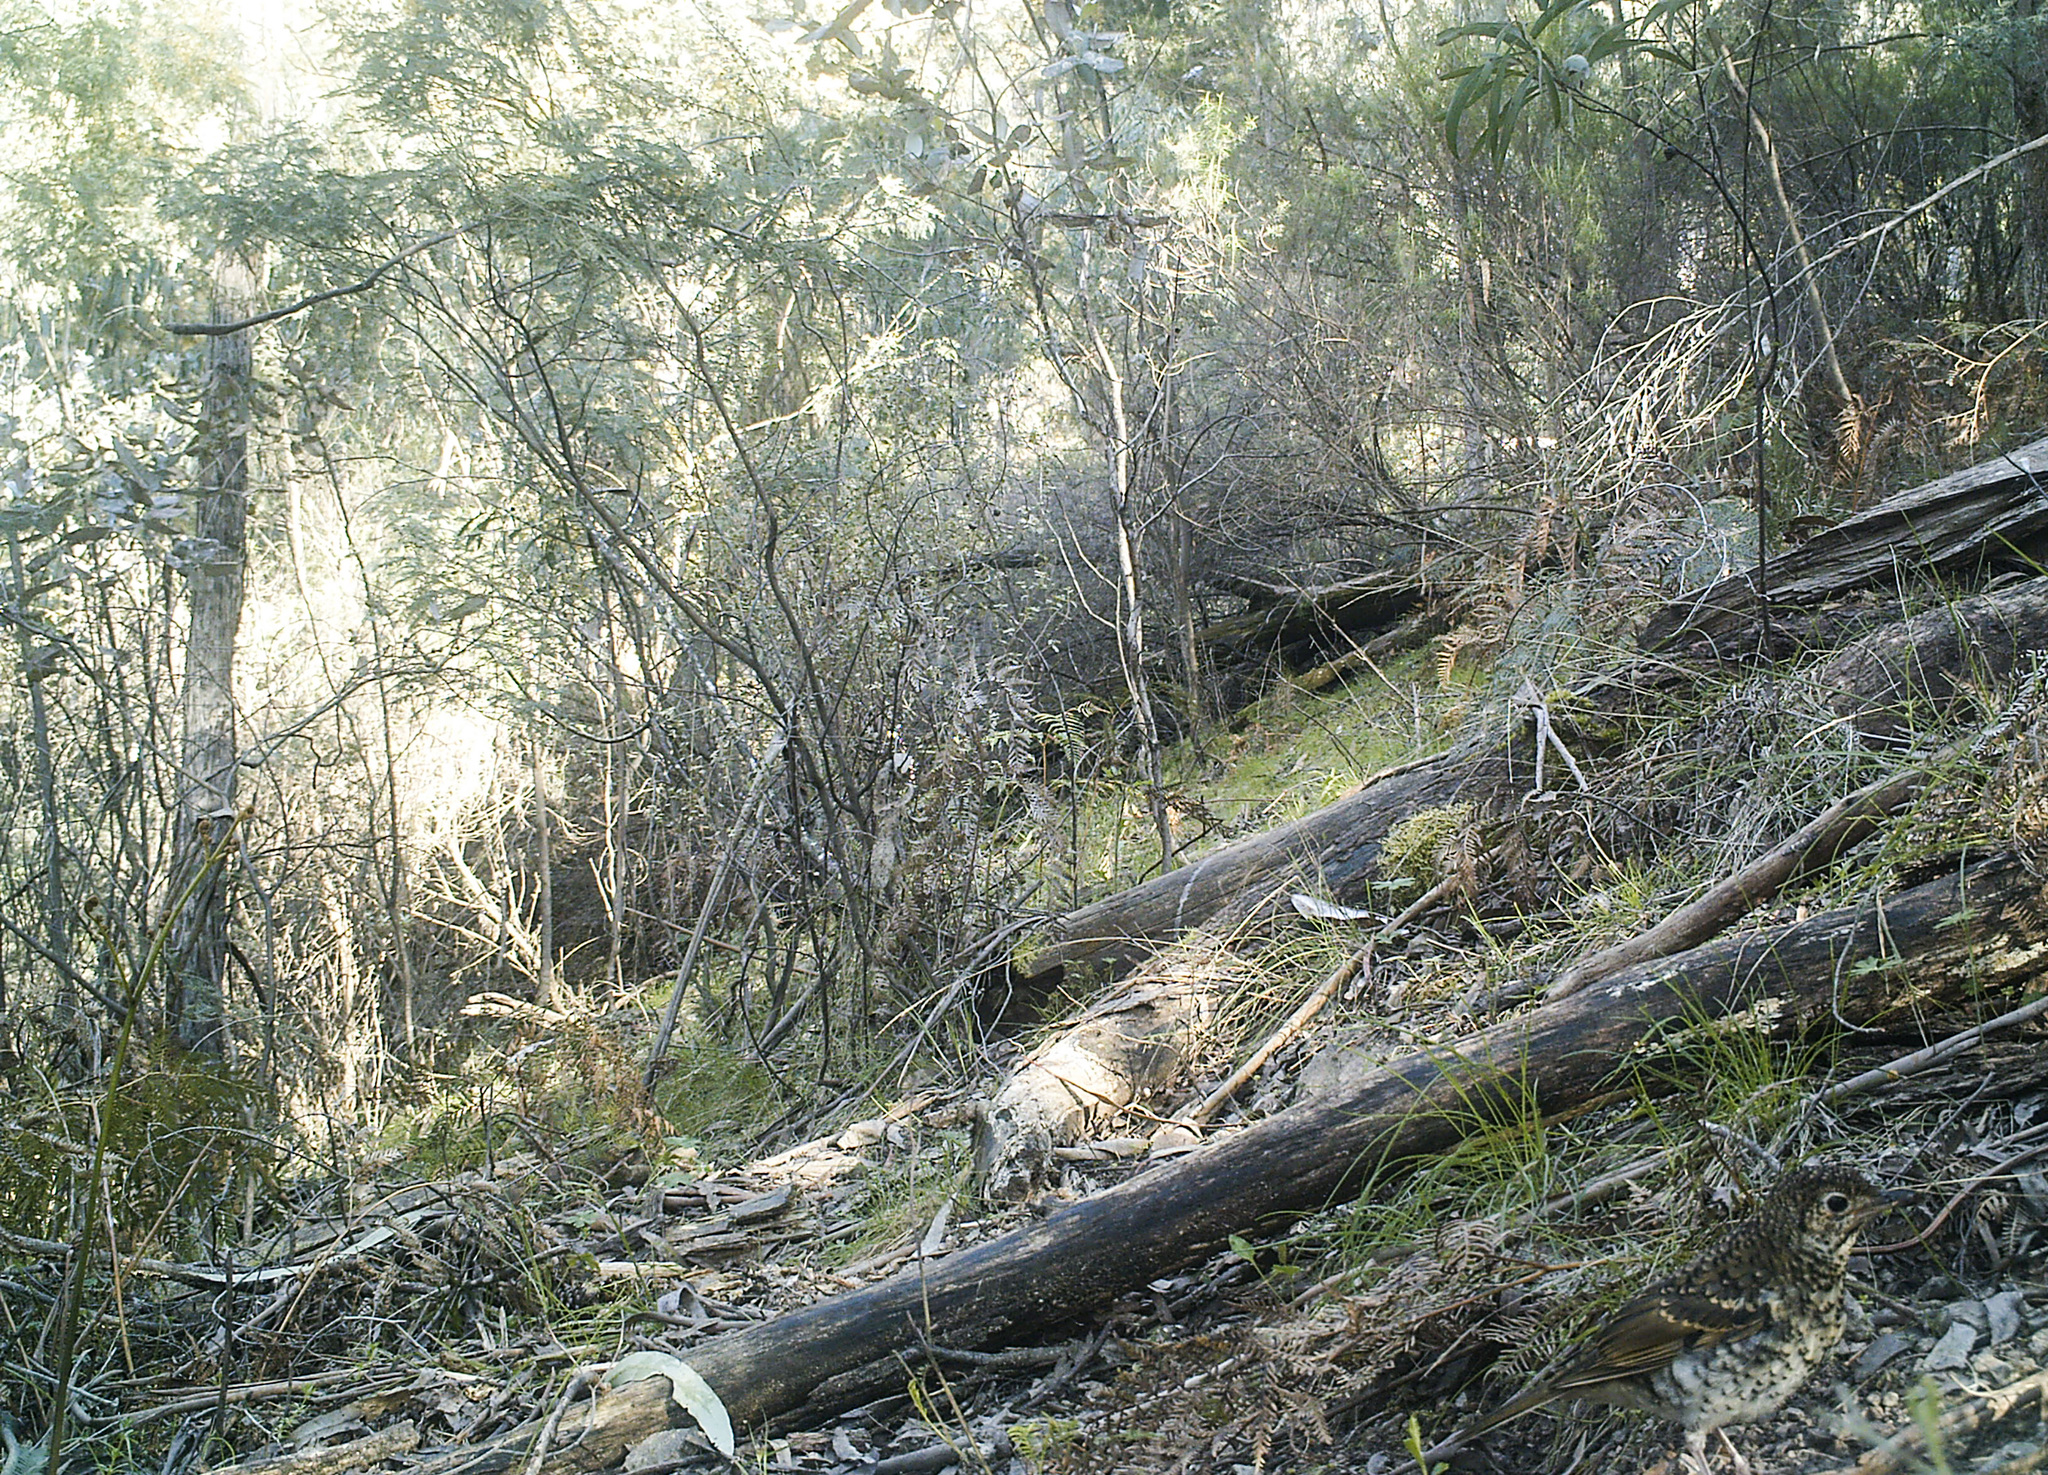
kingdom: Animalia
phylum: Chordata
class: Aves
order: Passeriformes
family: Turdidae
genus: Zoothera
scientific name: Zoothera lunulata
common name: Bassian thrush
